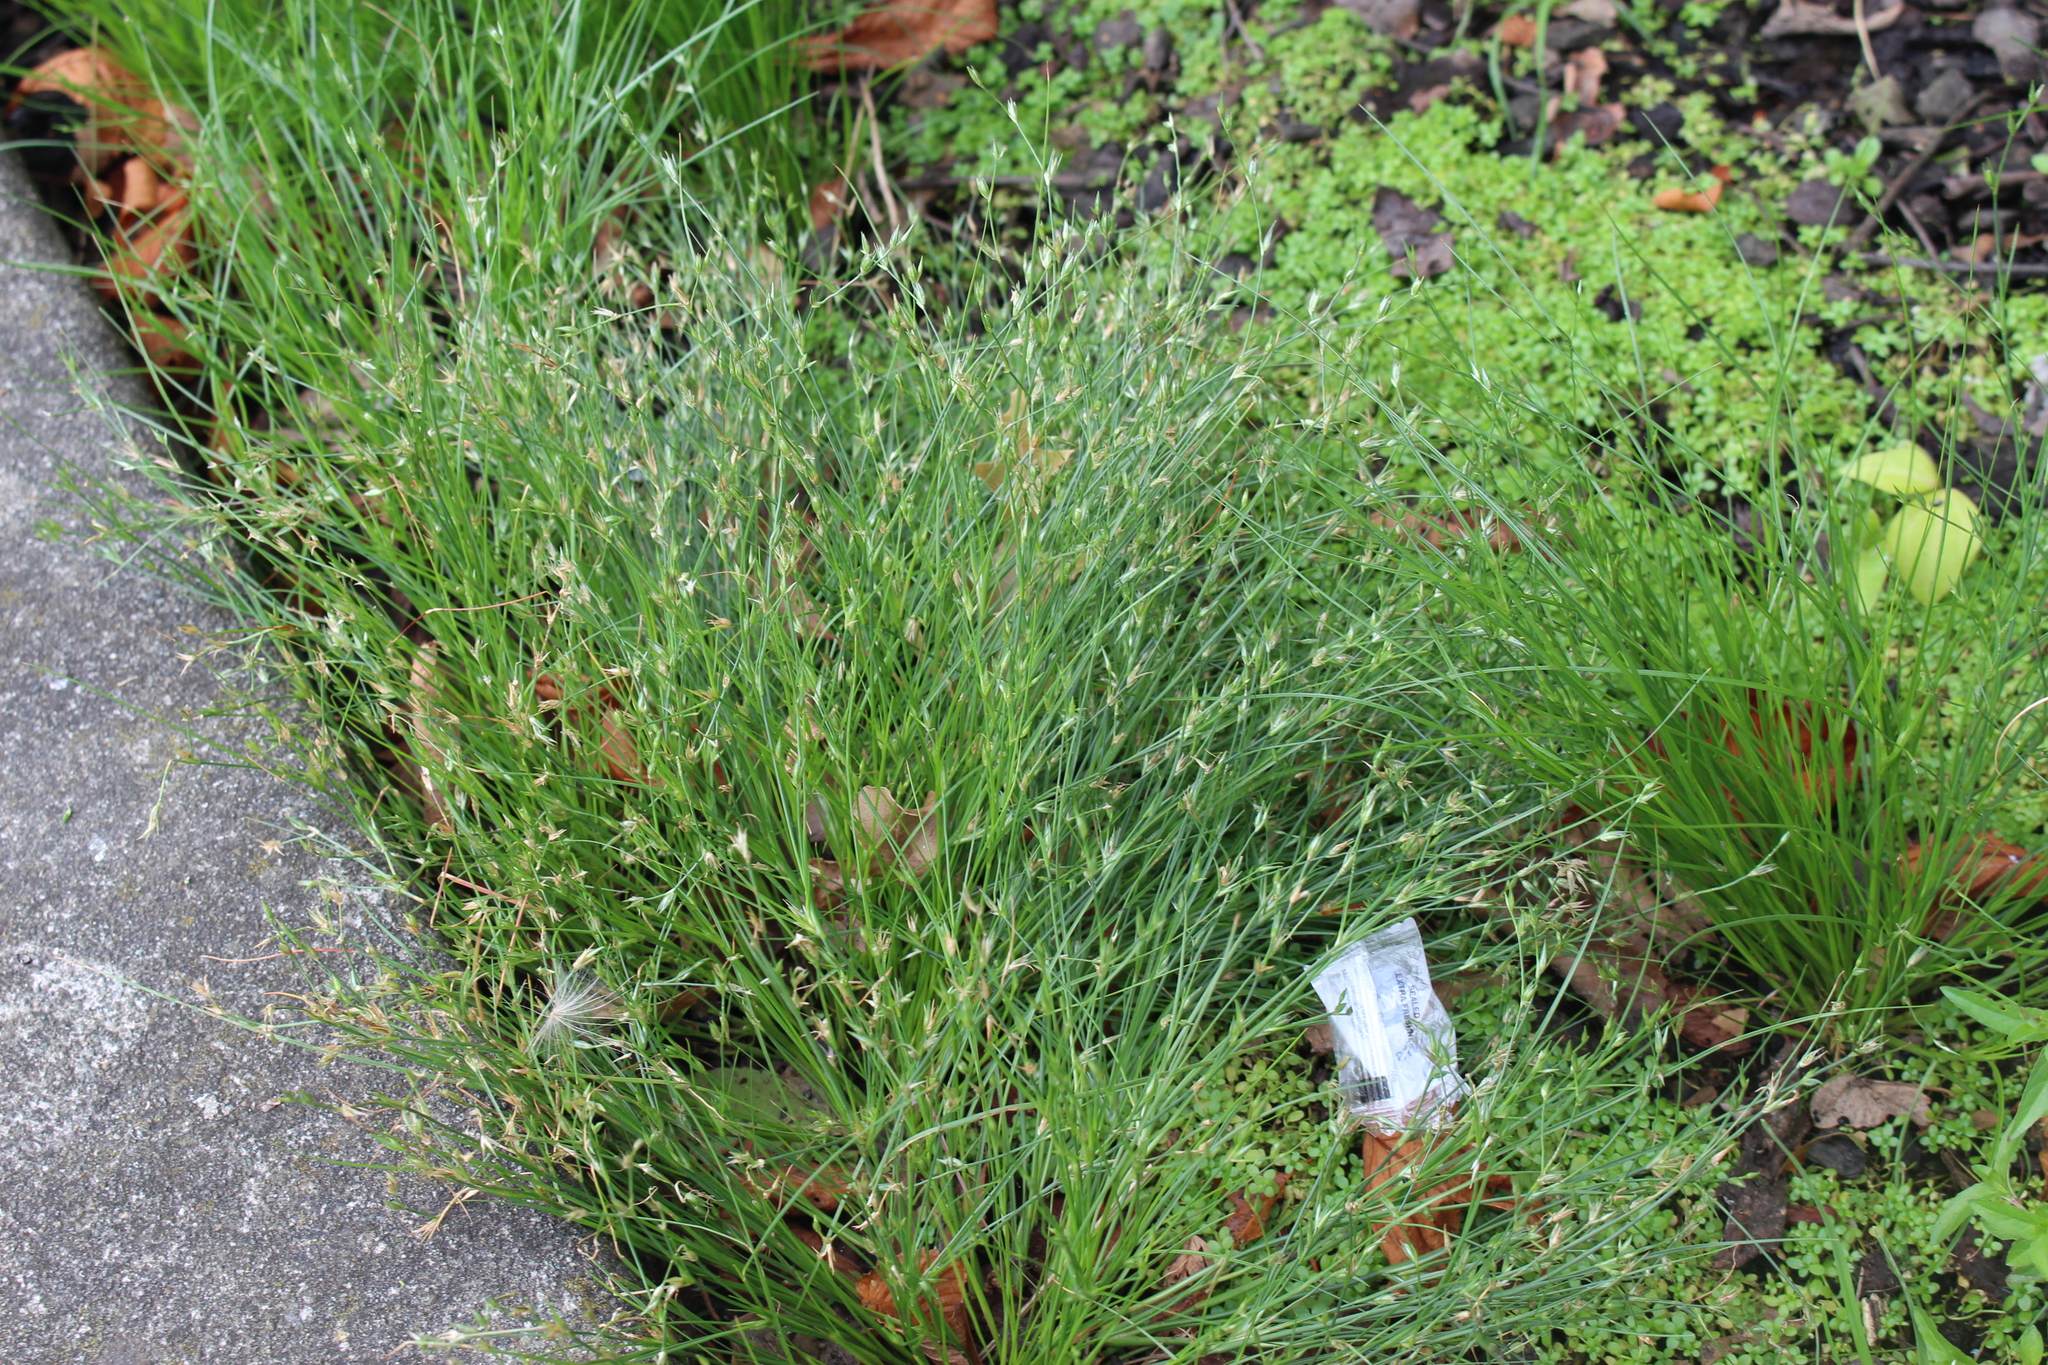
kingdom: Plantae
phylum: Tracheophyta
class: Liliopsida
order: Poales
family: Juncaceae
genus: Juncus
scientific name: Juncus bufonius
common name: Toad rush
